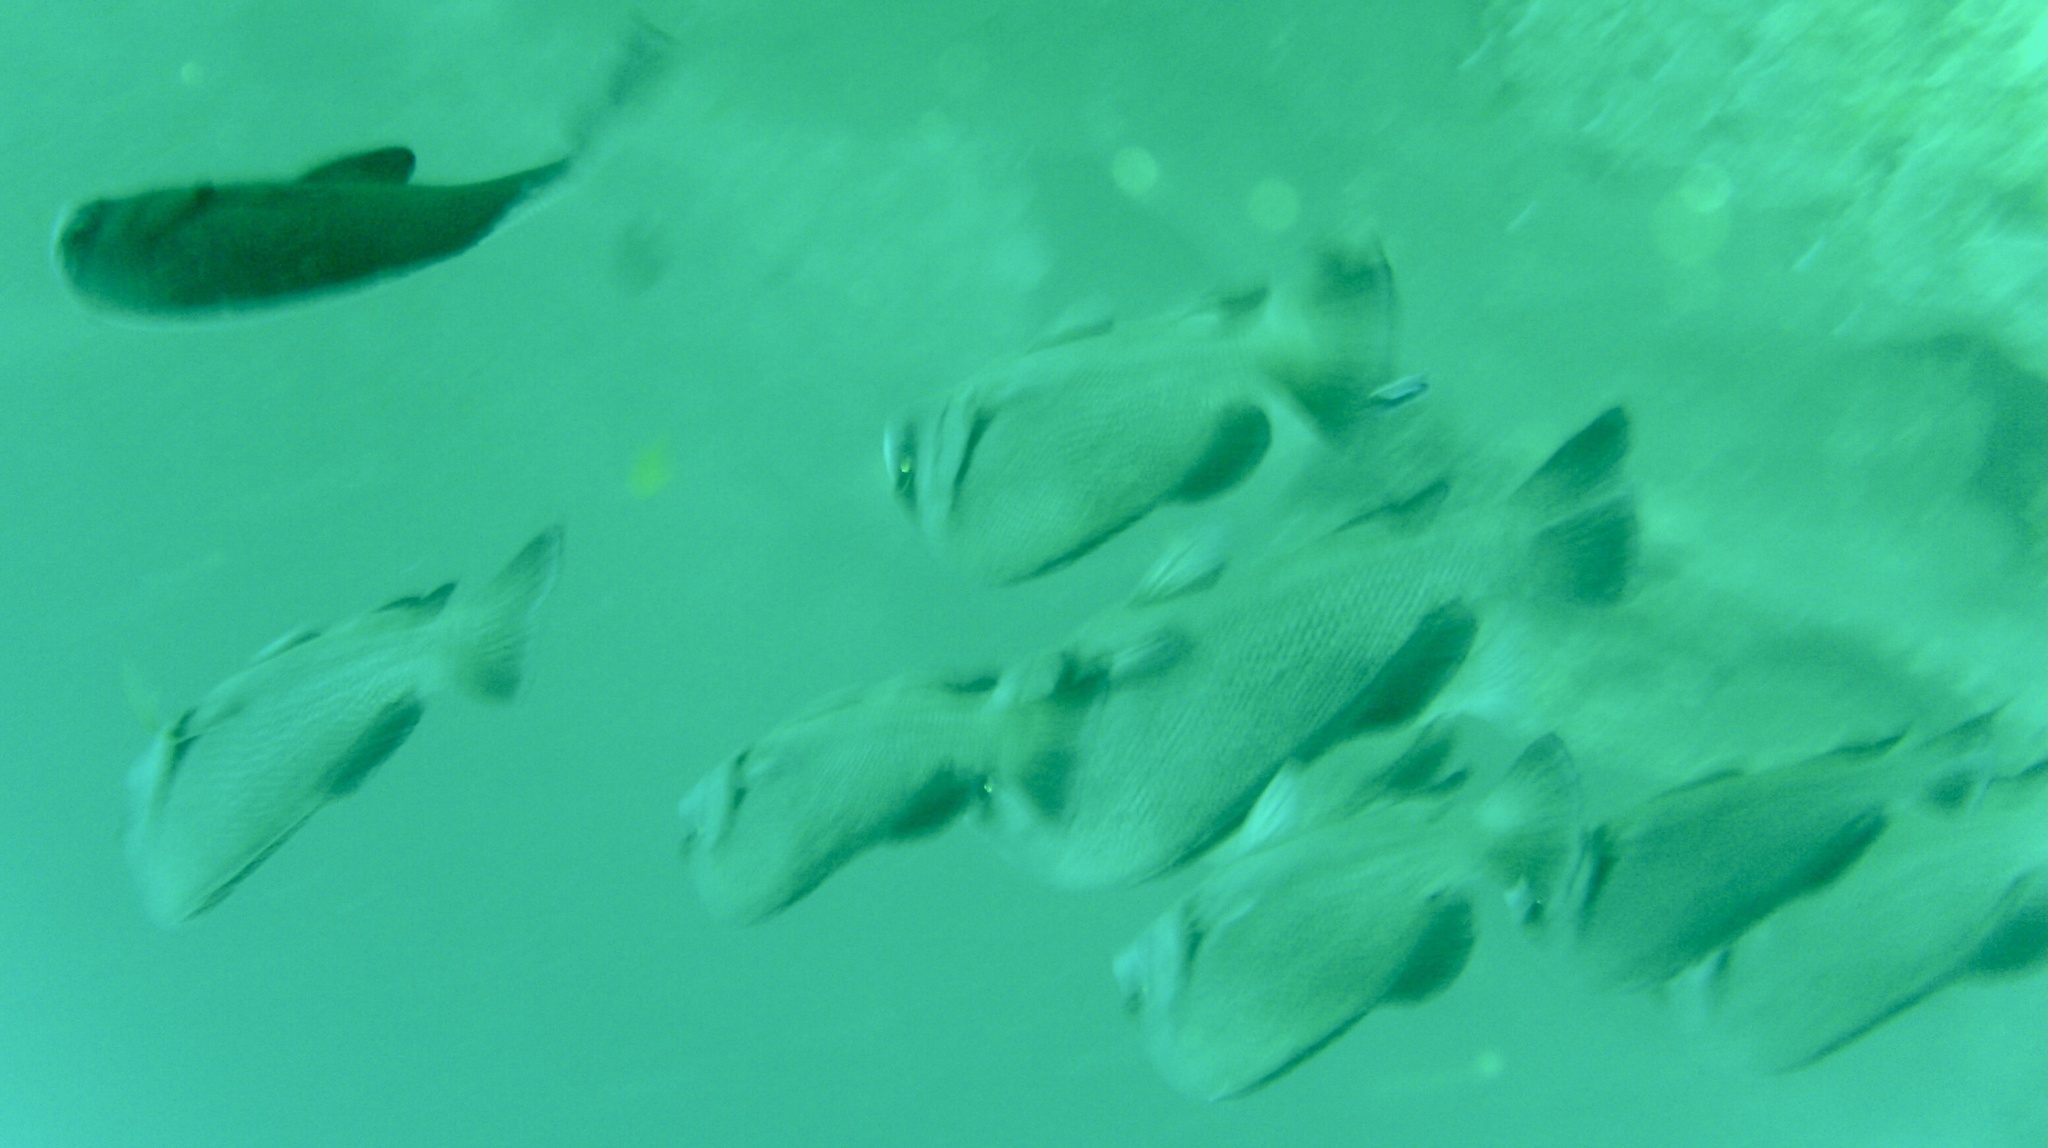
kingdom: Animalia
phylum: Chordata
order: Perciformes
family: Haemulidae
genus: Plectorhinchus
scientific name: Plectorhinchus gibbosus
